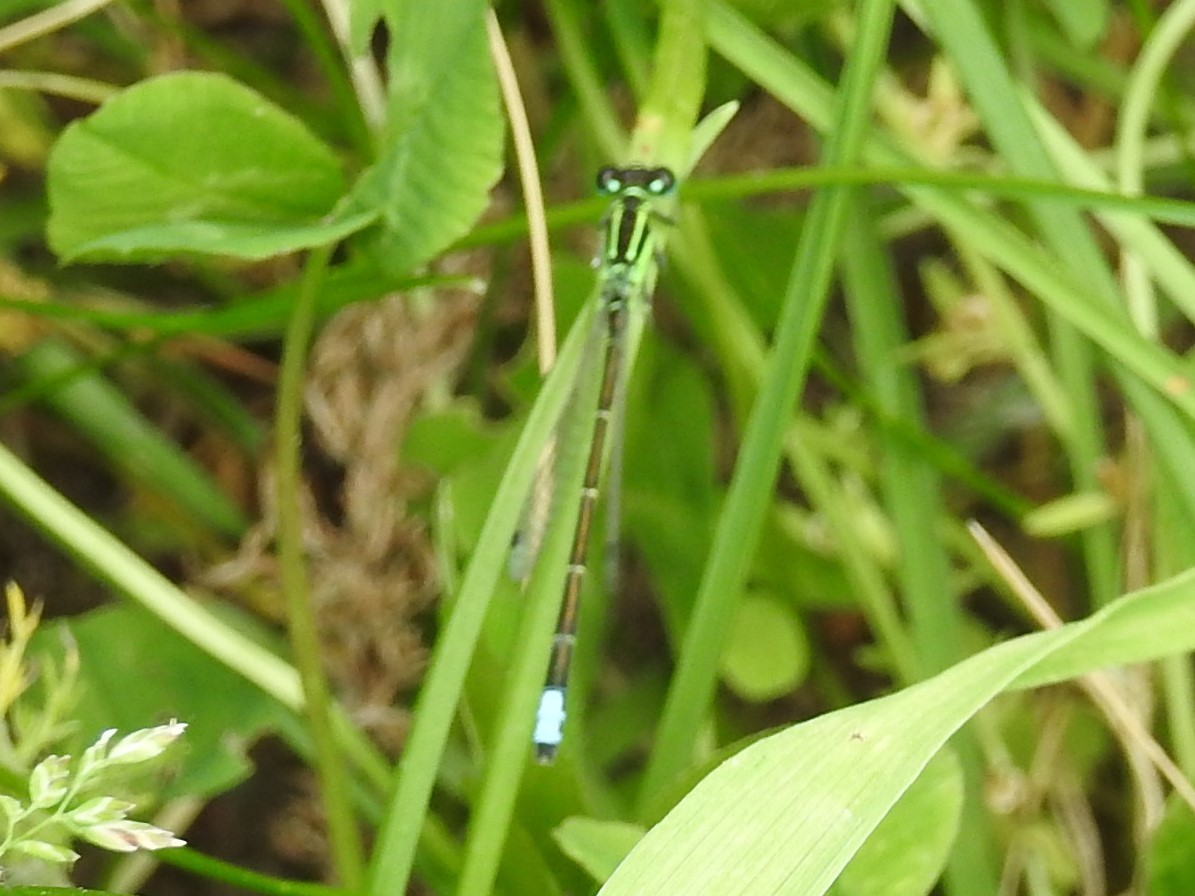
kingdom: Animalia
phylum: Arthropoda
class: Insecta
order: Odonata
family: Coenagrionidae
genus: Ischnura
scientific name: Ischnura verticalis
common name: Eastern forktail
